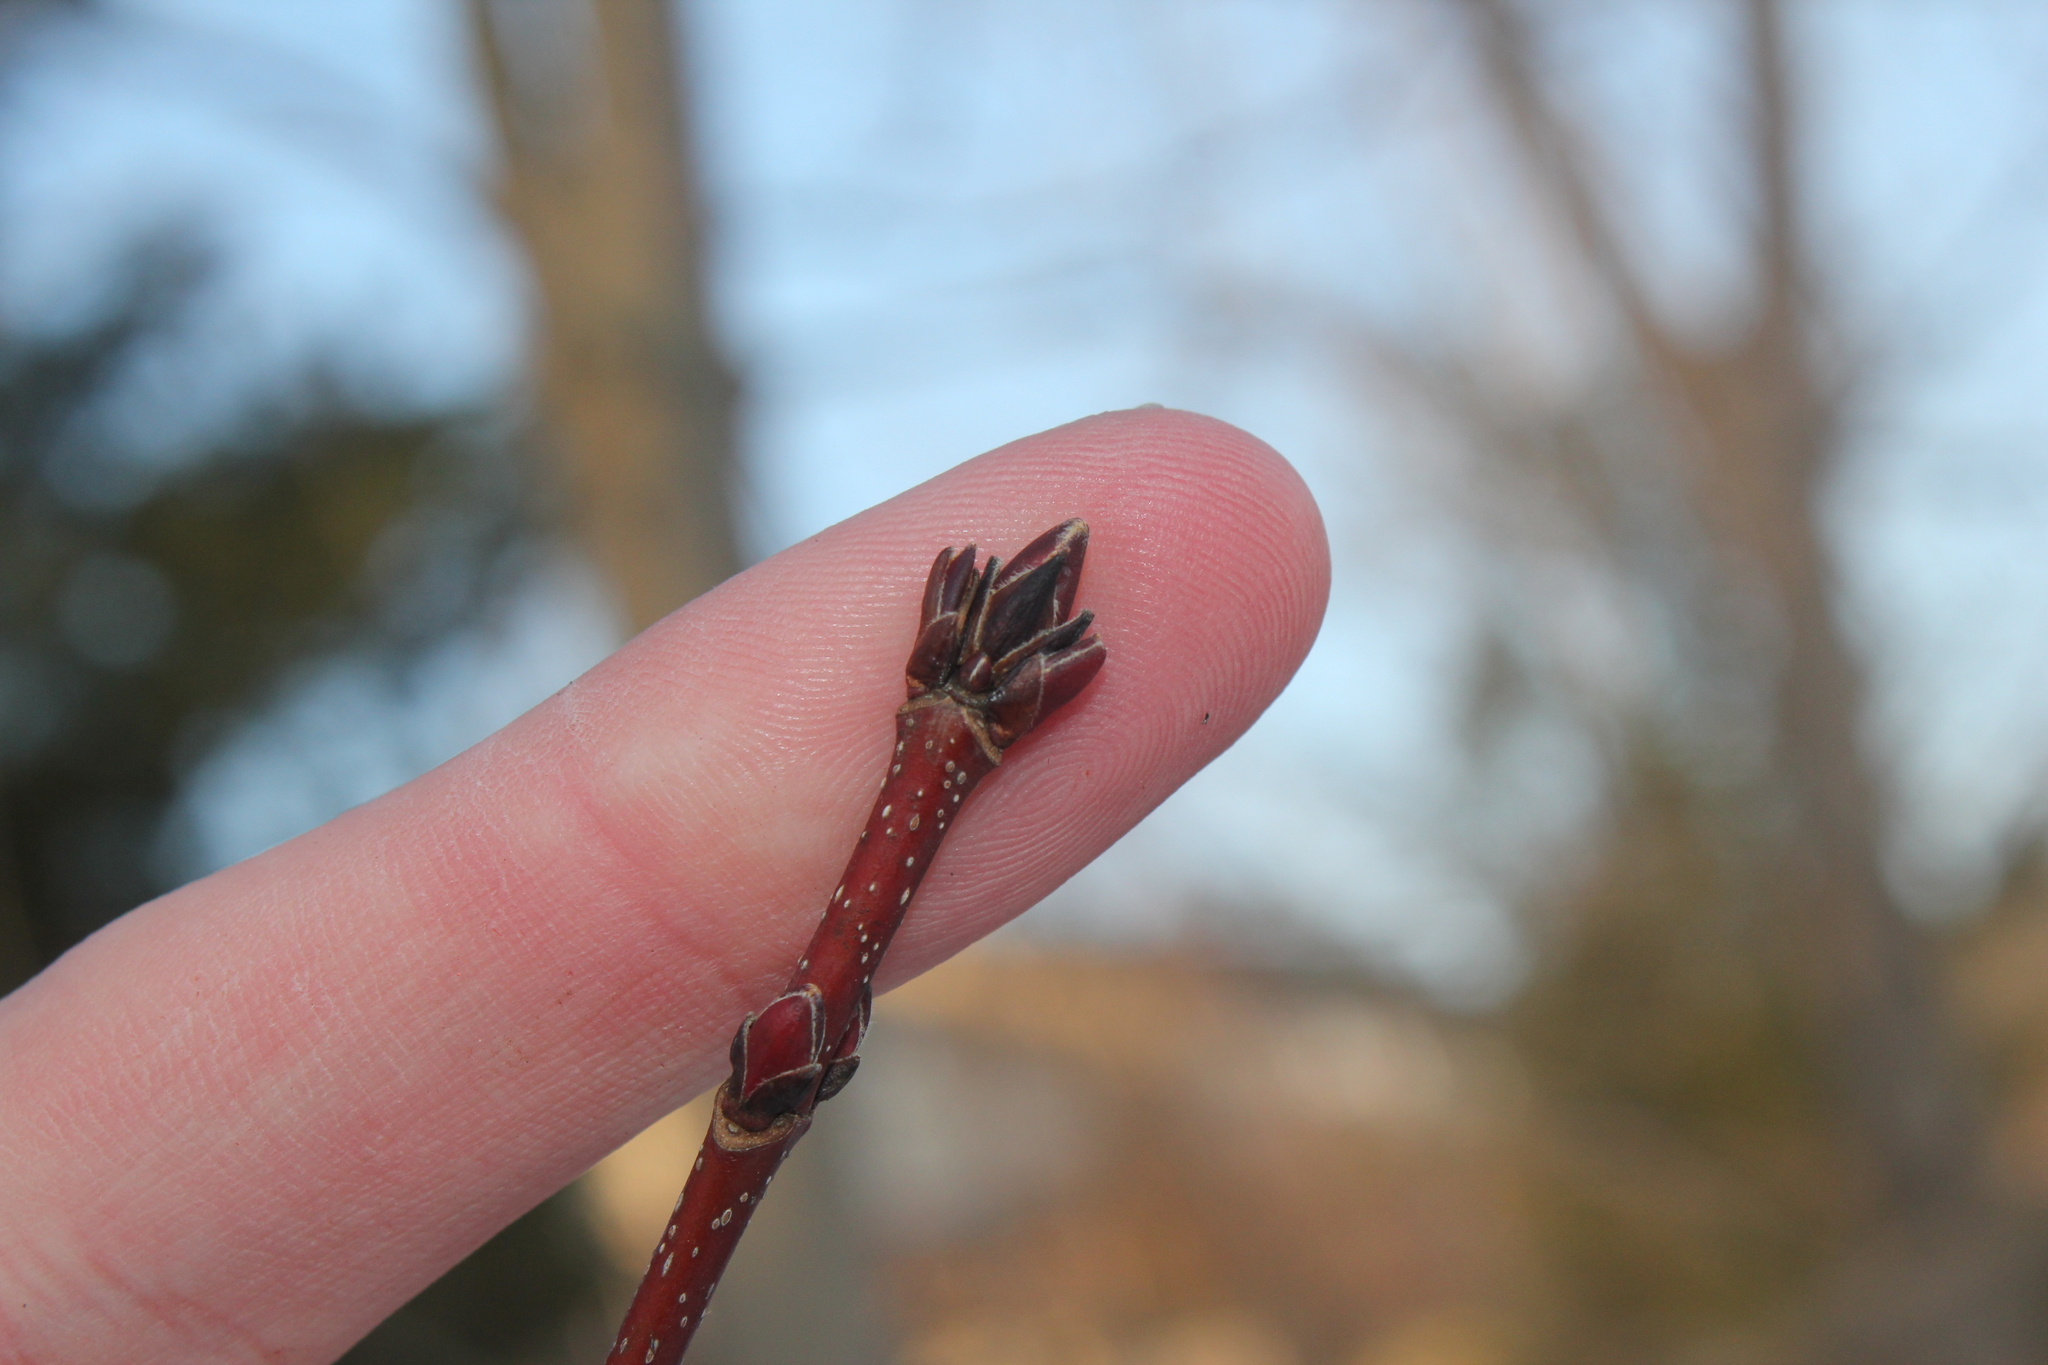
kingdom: Plantae
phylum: Tracheophyta
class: Magnoliopsida
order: Sapindales
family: Sapindaceae
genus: Acer
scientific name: Acer rubrum
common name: Red maple
